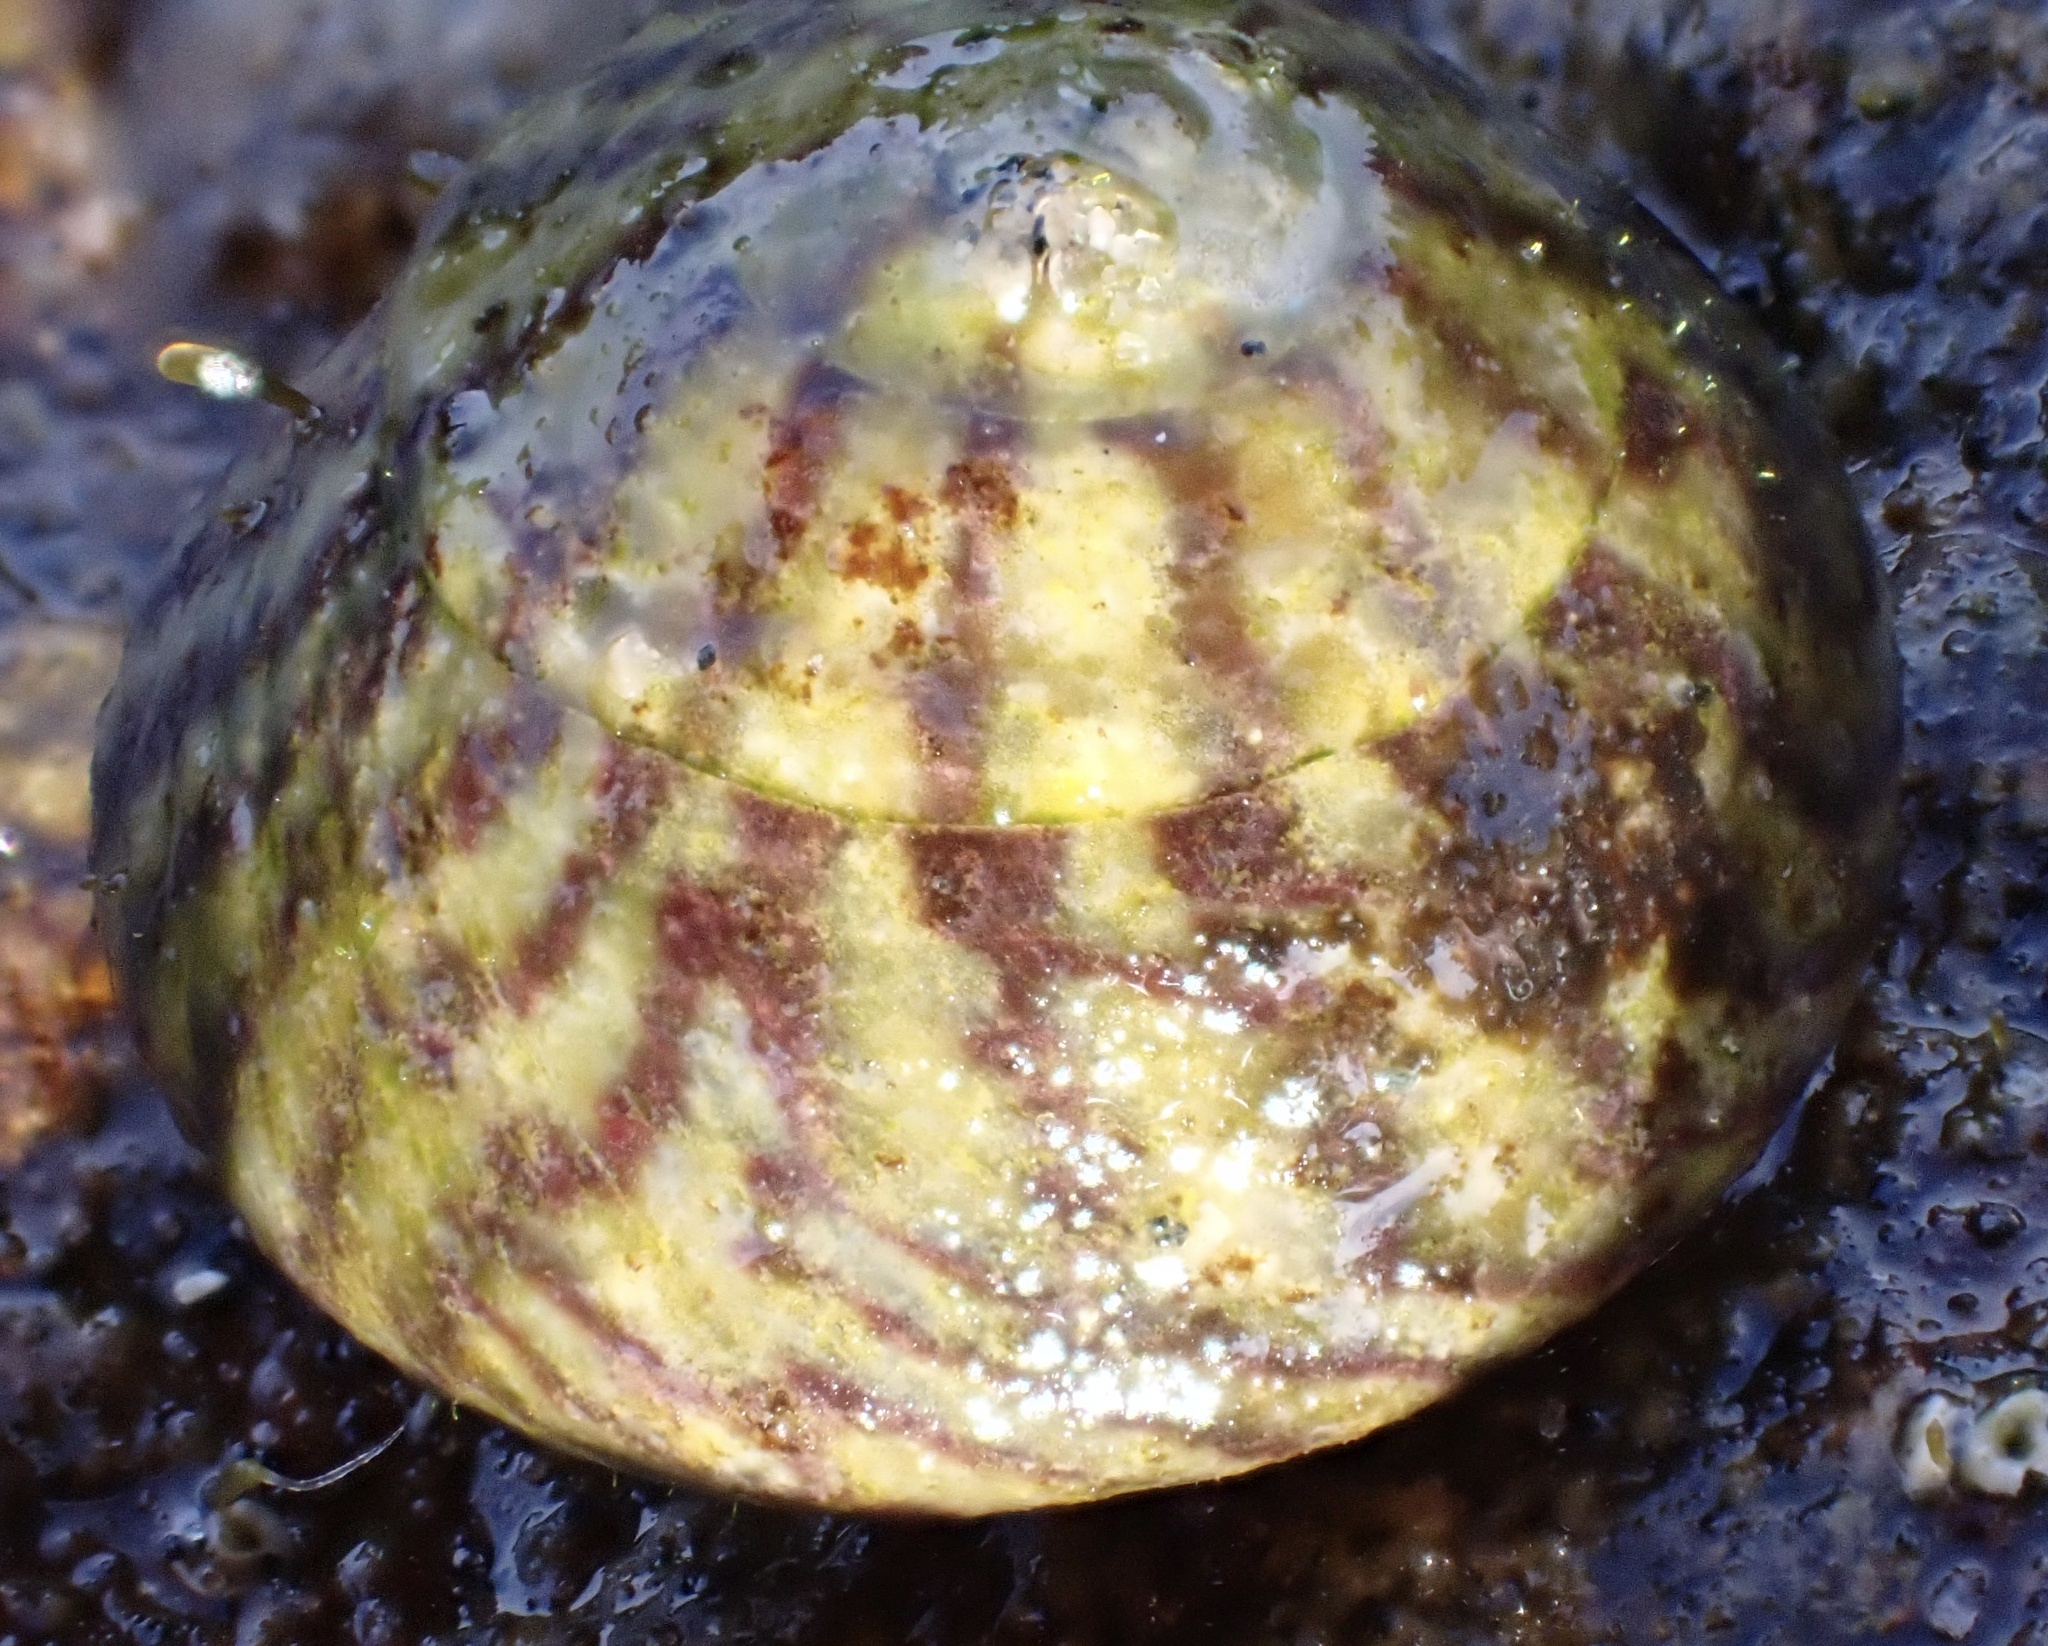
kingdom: Animalia
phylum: Mollusca
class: Gastropoda
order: Trochida
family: Trochidae
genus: Steromphala
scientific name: Steromphala umbilicalis
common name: Flat top shell
